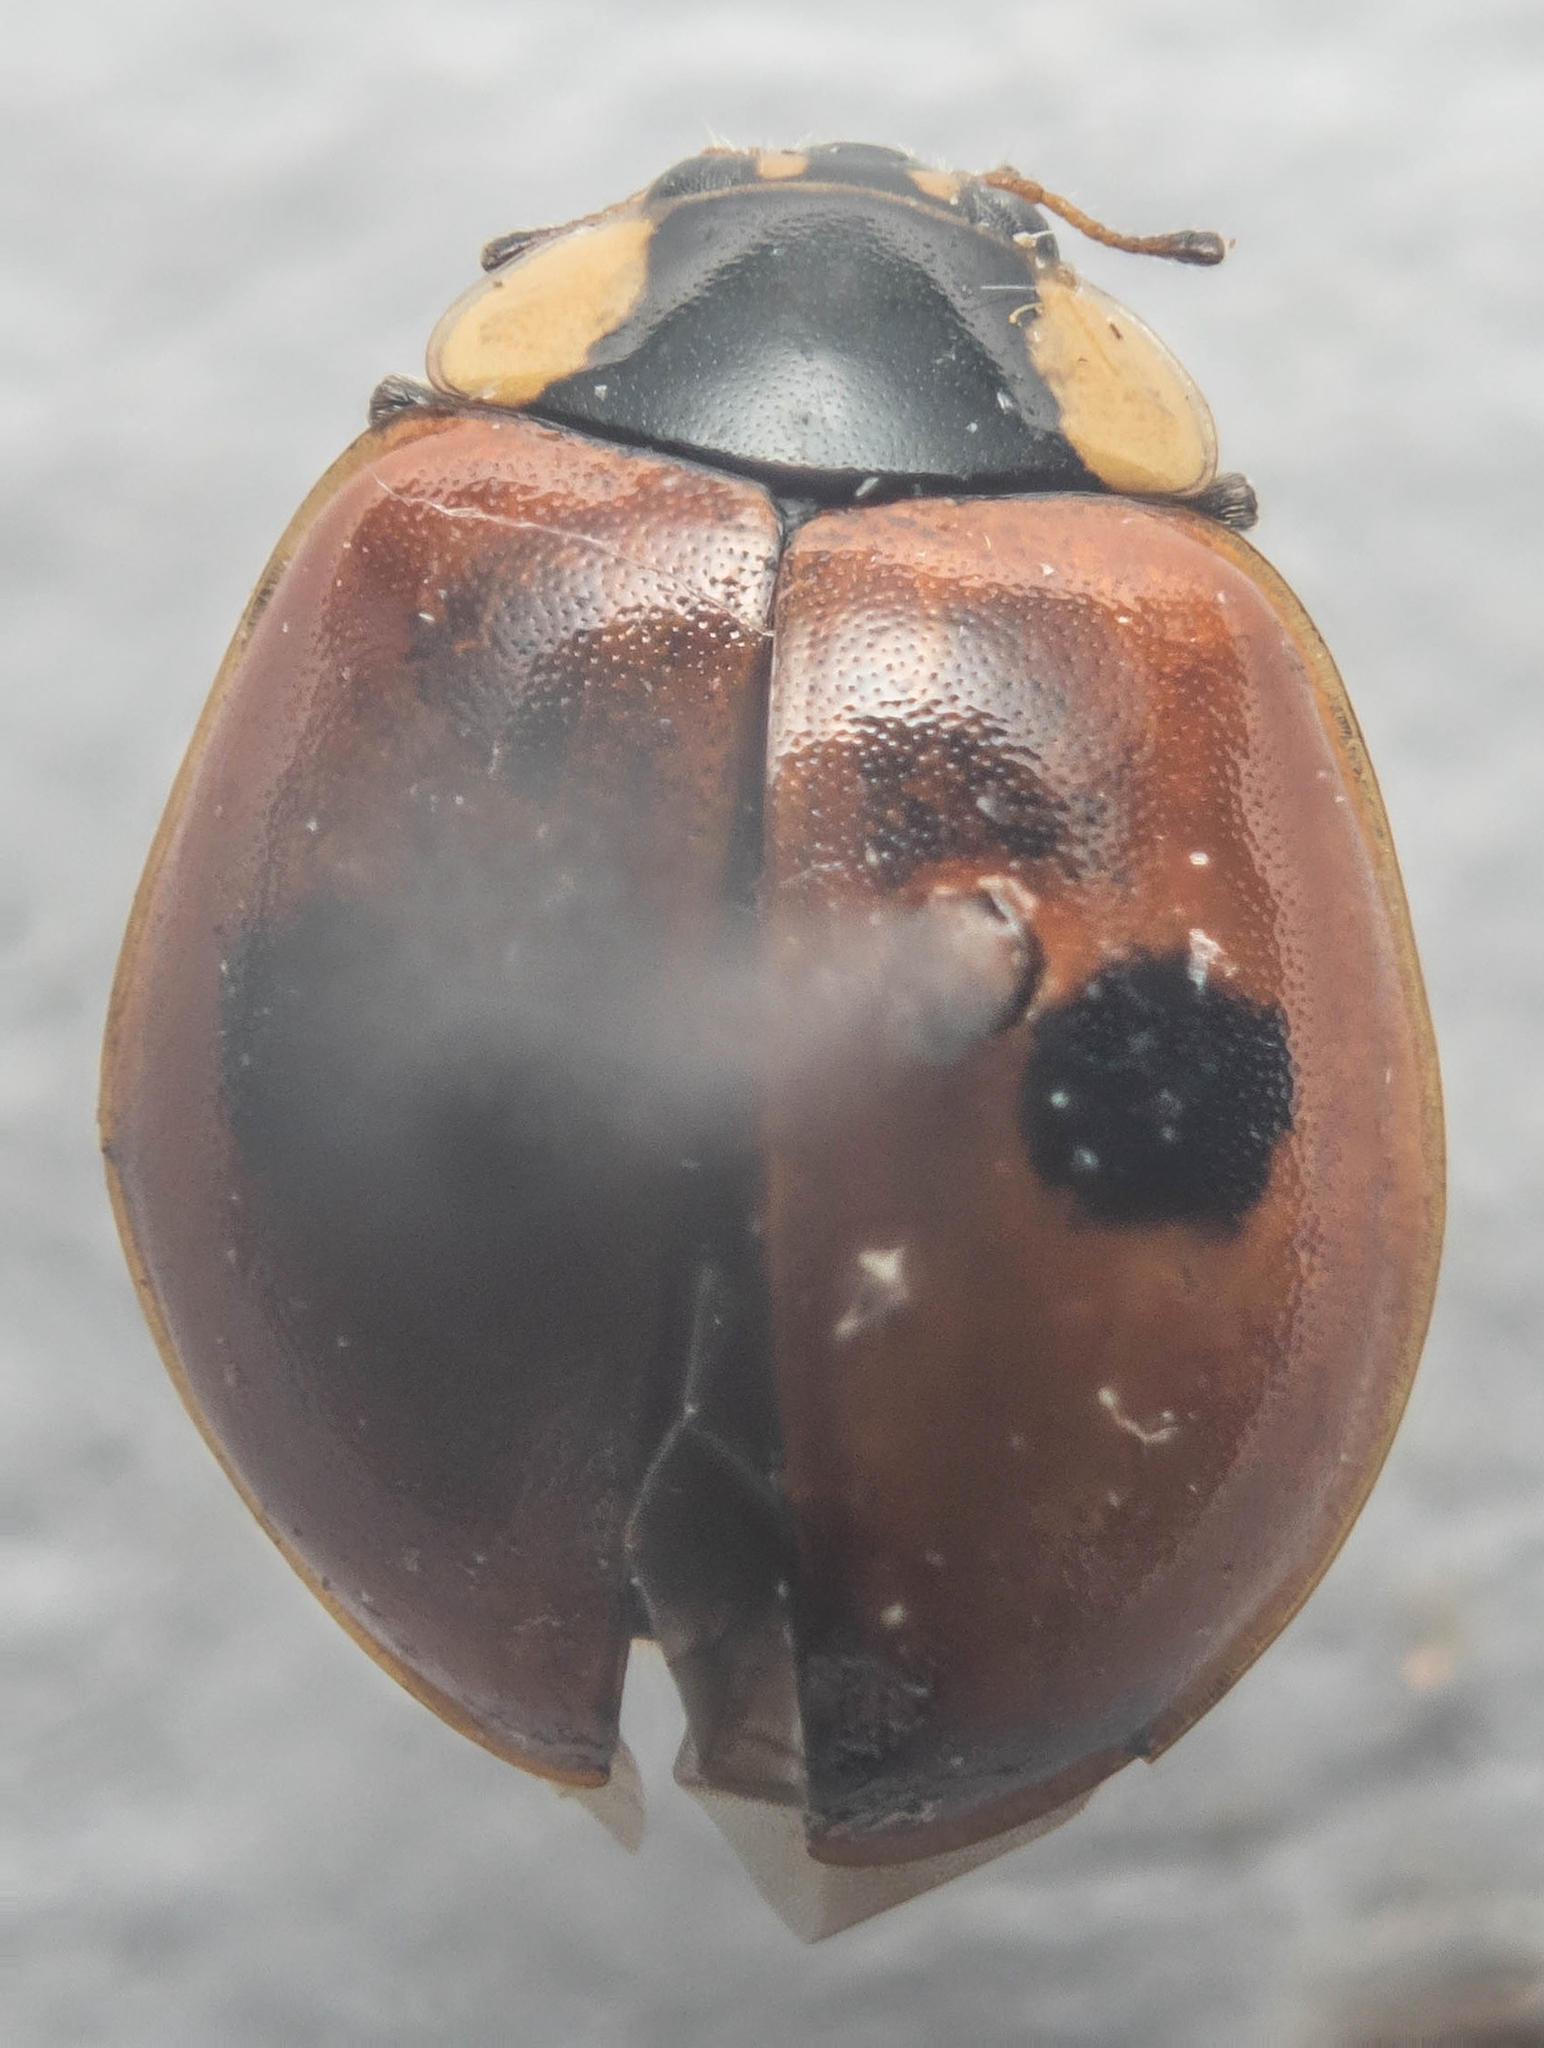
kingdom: Animalia
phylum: Arthropoda
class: Insecta
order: Coleoptera
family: Coccinellidae
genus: Adalia
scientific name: Adalia bipunctata
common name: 2-spot ladybird
